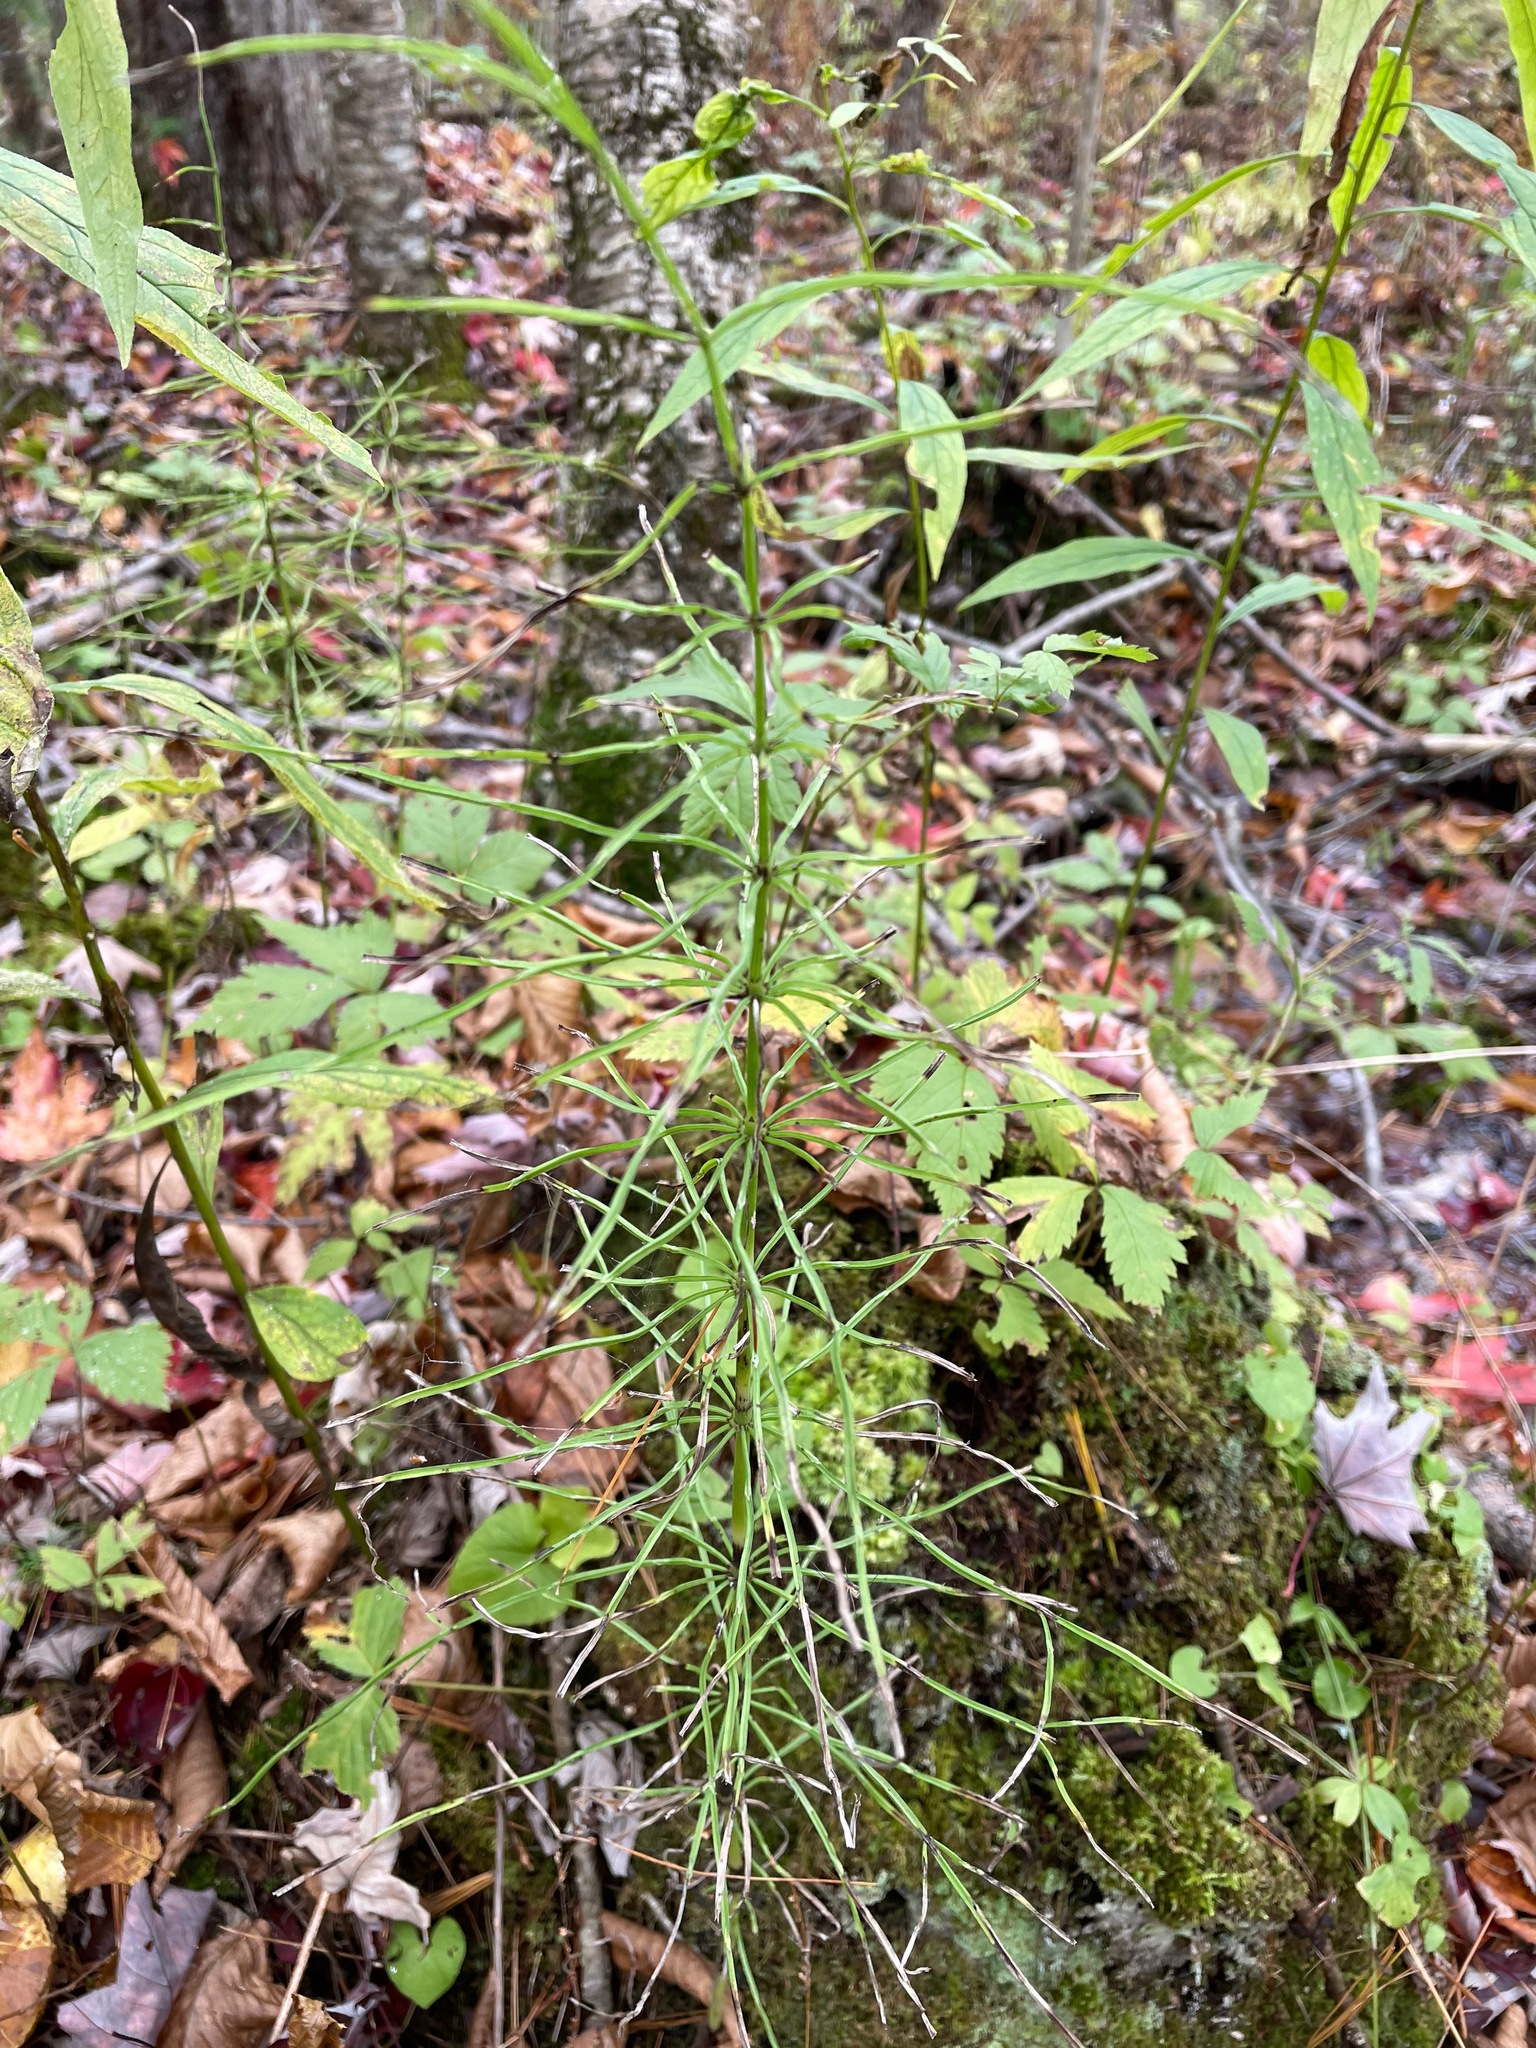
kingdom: Plantae
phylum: Tracheophyta
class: Polypodiopsida
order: Equisetales
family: Equisetaceae
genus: Equisetum
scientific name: Equisetum sylvaticum
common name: Wood horsetail
